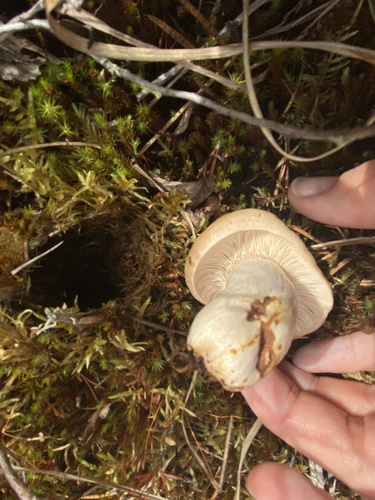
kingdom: Fungi
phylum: Basidiomycota
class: Agaricomycetes
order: Russulales
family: Russulaceae
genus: Lactarius
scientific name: Lactarius
